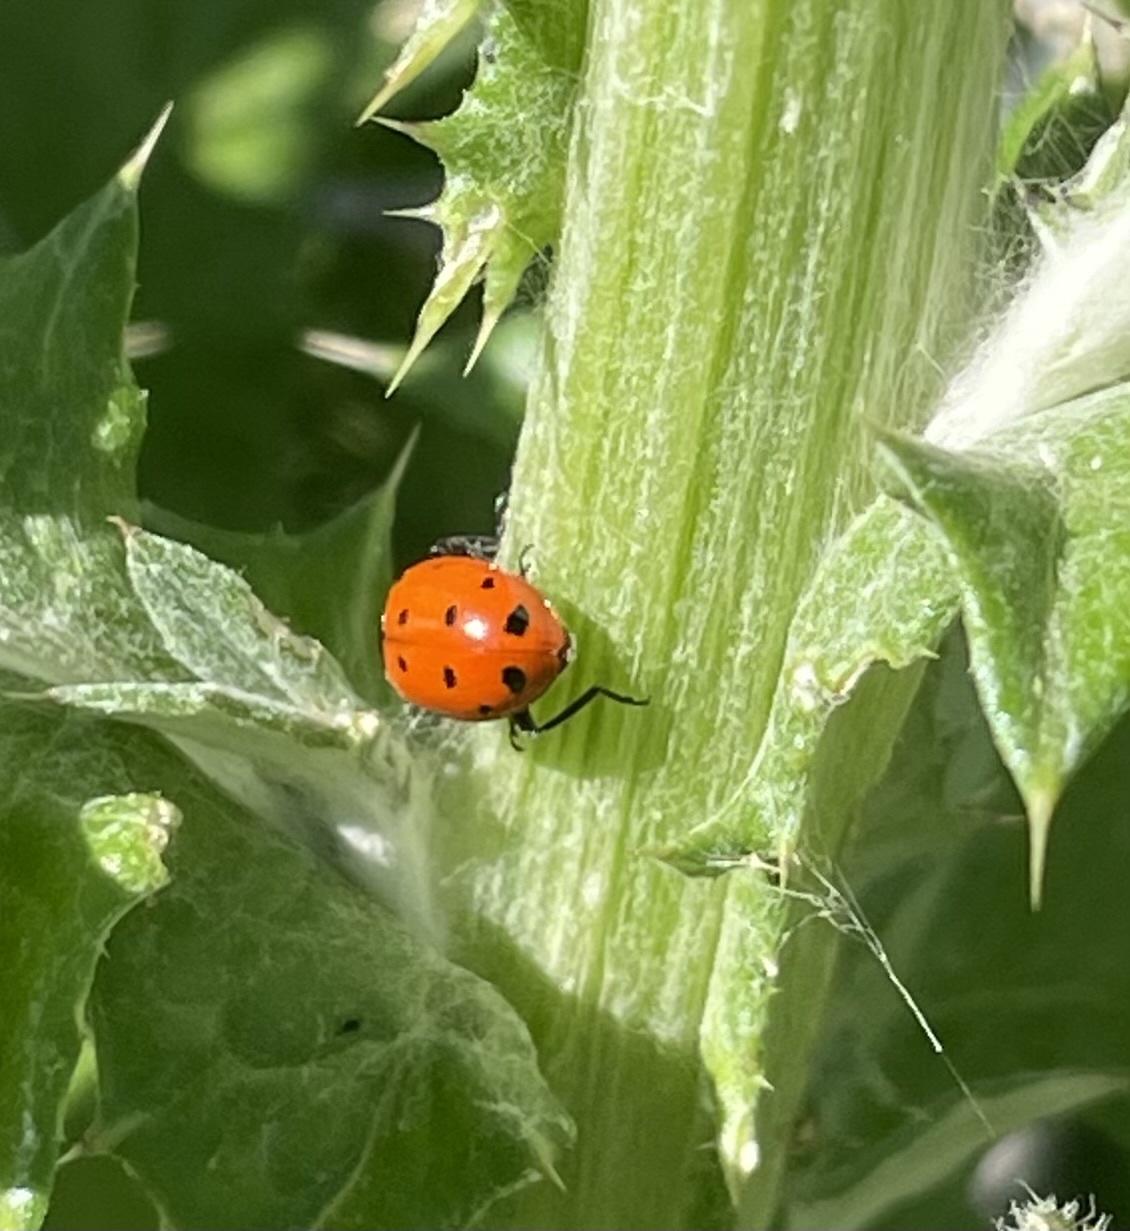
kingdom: Animalia
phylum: Arthropoda
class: Insecta
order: Coleoptera
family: Coccinellidae
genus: Hippodamia
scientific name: Hippodamia convergens
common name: Convergent lady beetle
